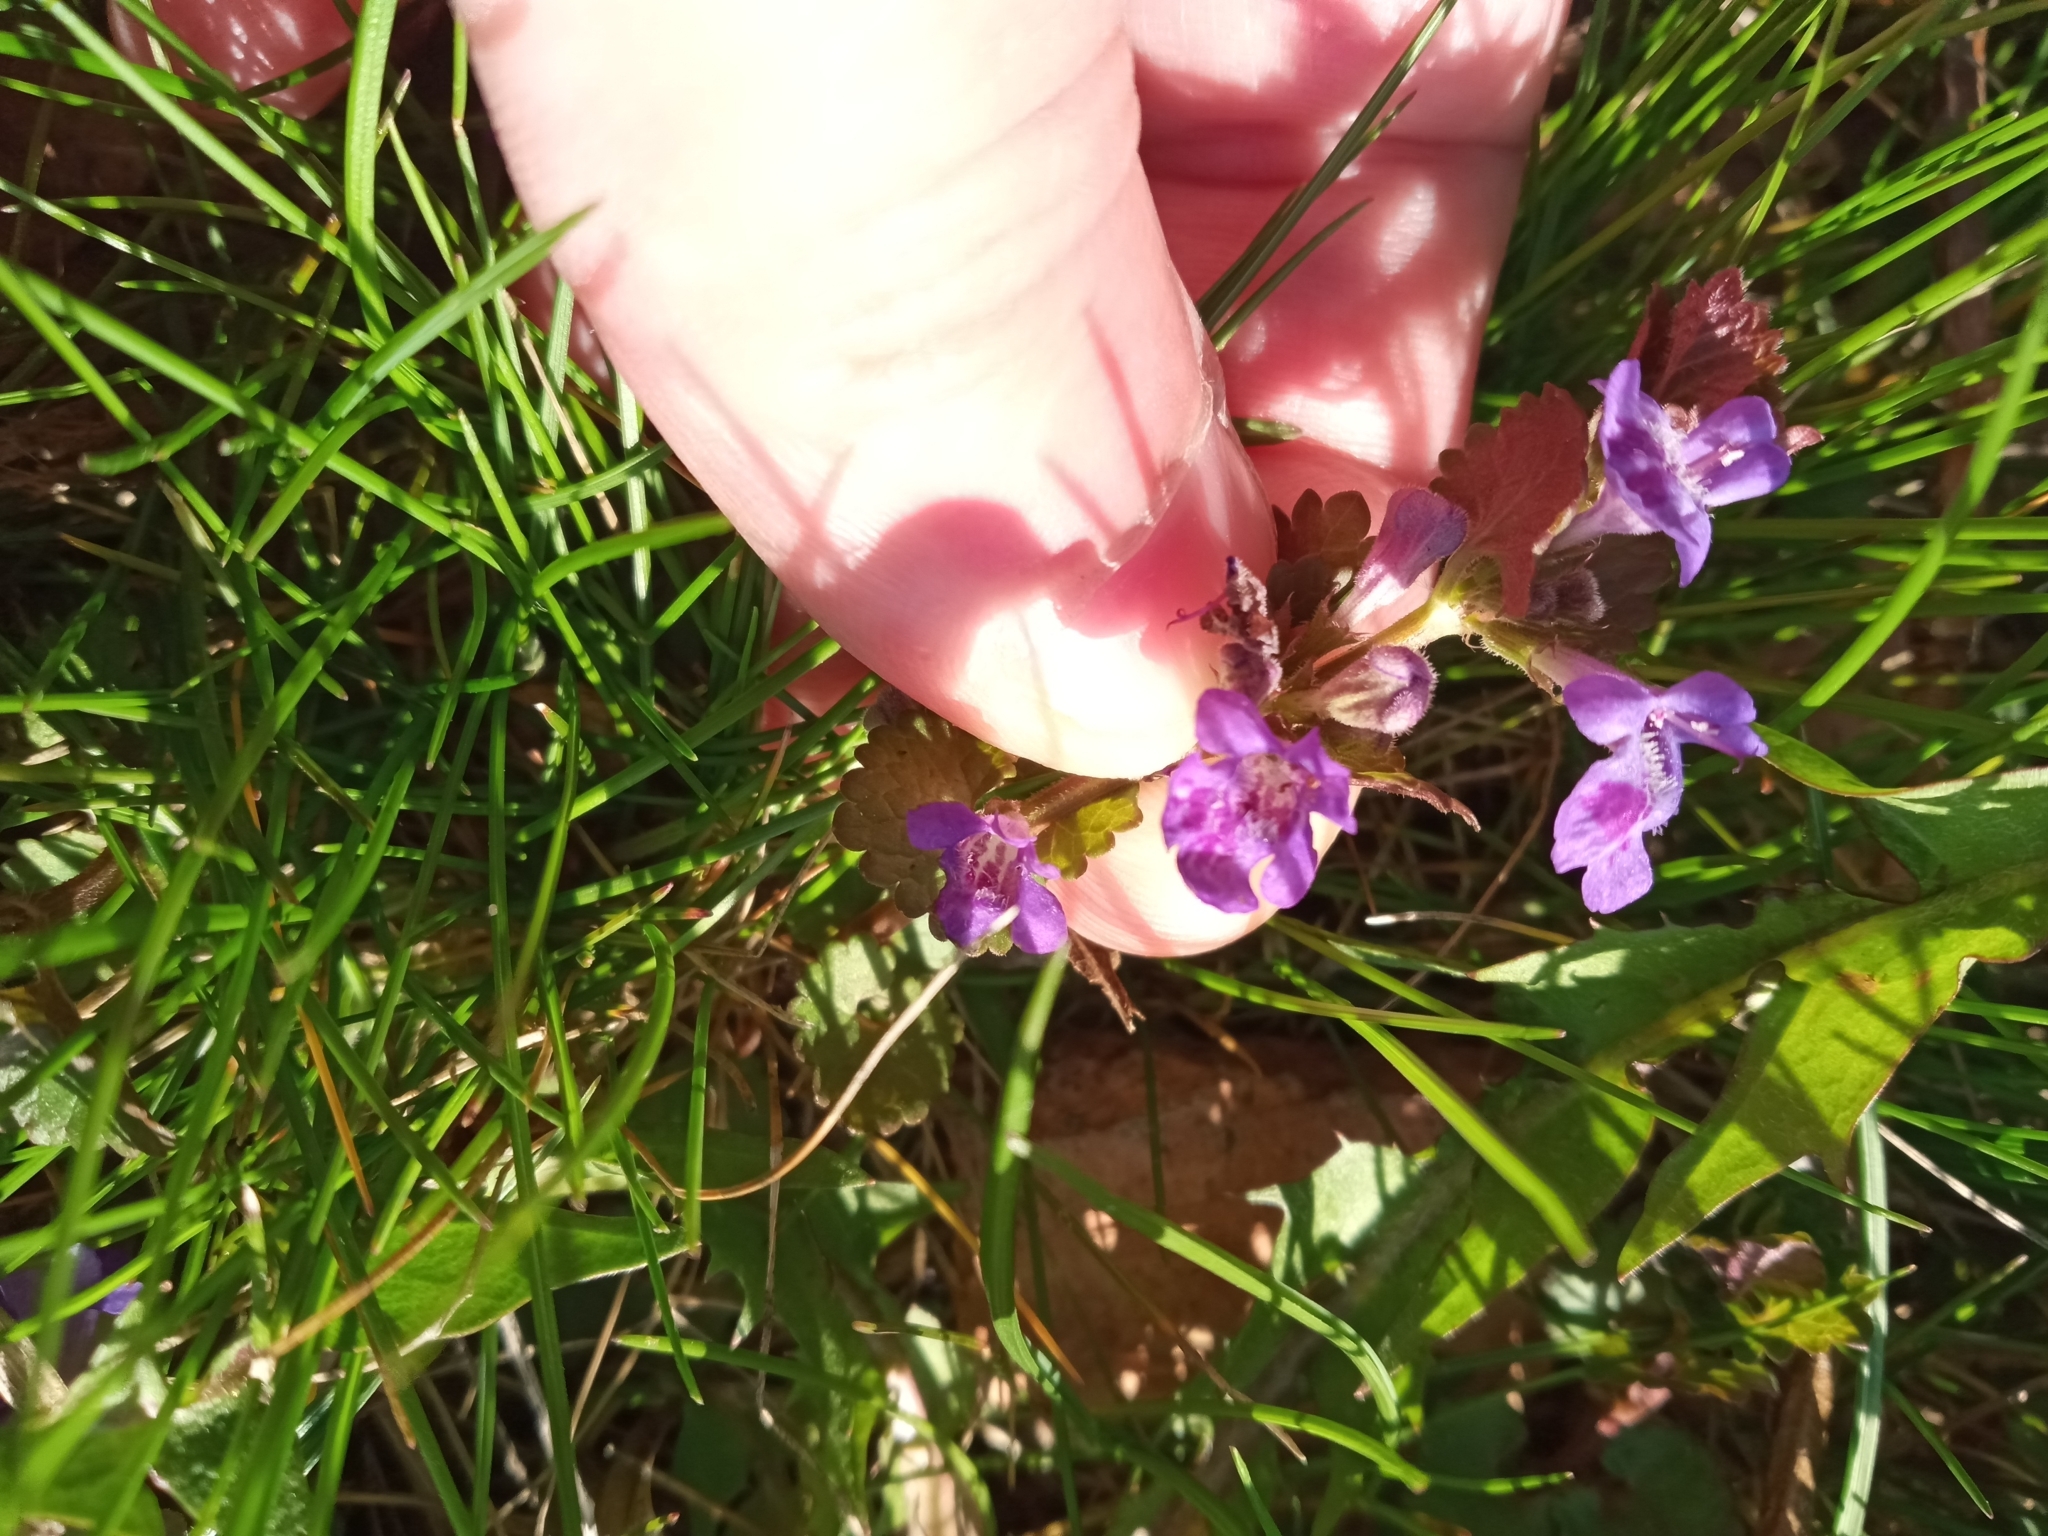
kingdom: Plantae
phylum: Tracheophyta
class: Magnoliopsida
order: Lamiales
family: Lamiaceae
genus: Glechoma
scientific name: Glechoma hederacea
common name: Ground ivy
